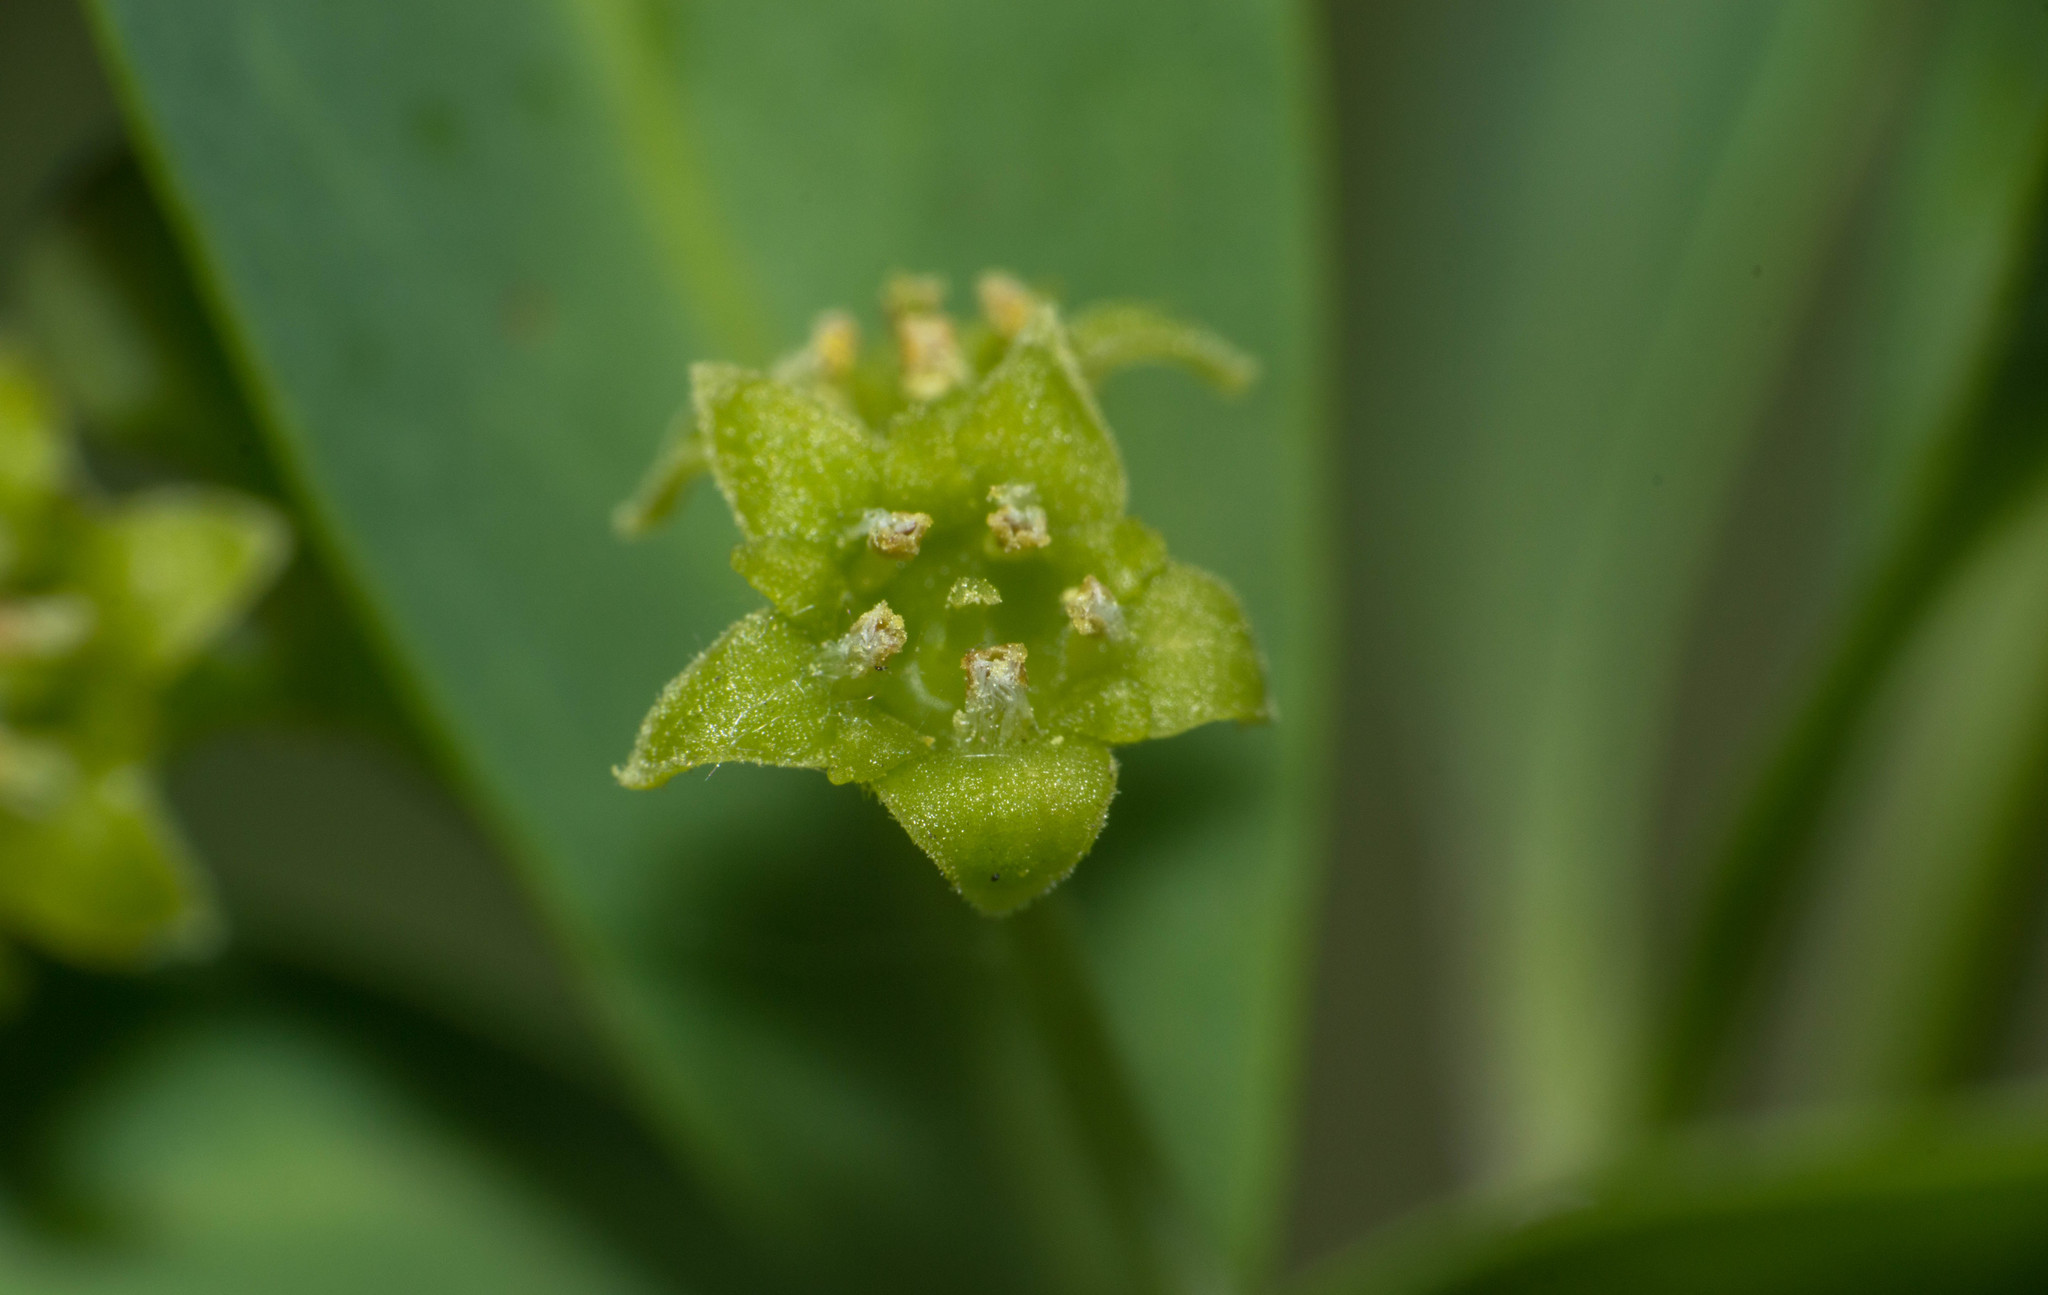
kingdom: Plantae
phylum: Tracheophyta
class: Magnoliopsida
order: Santalales
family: Cervantesiaceae
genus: Acanthosyris
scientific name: Acanthosyris spinescens
